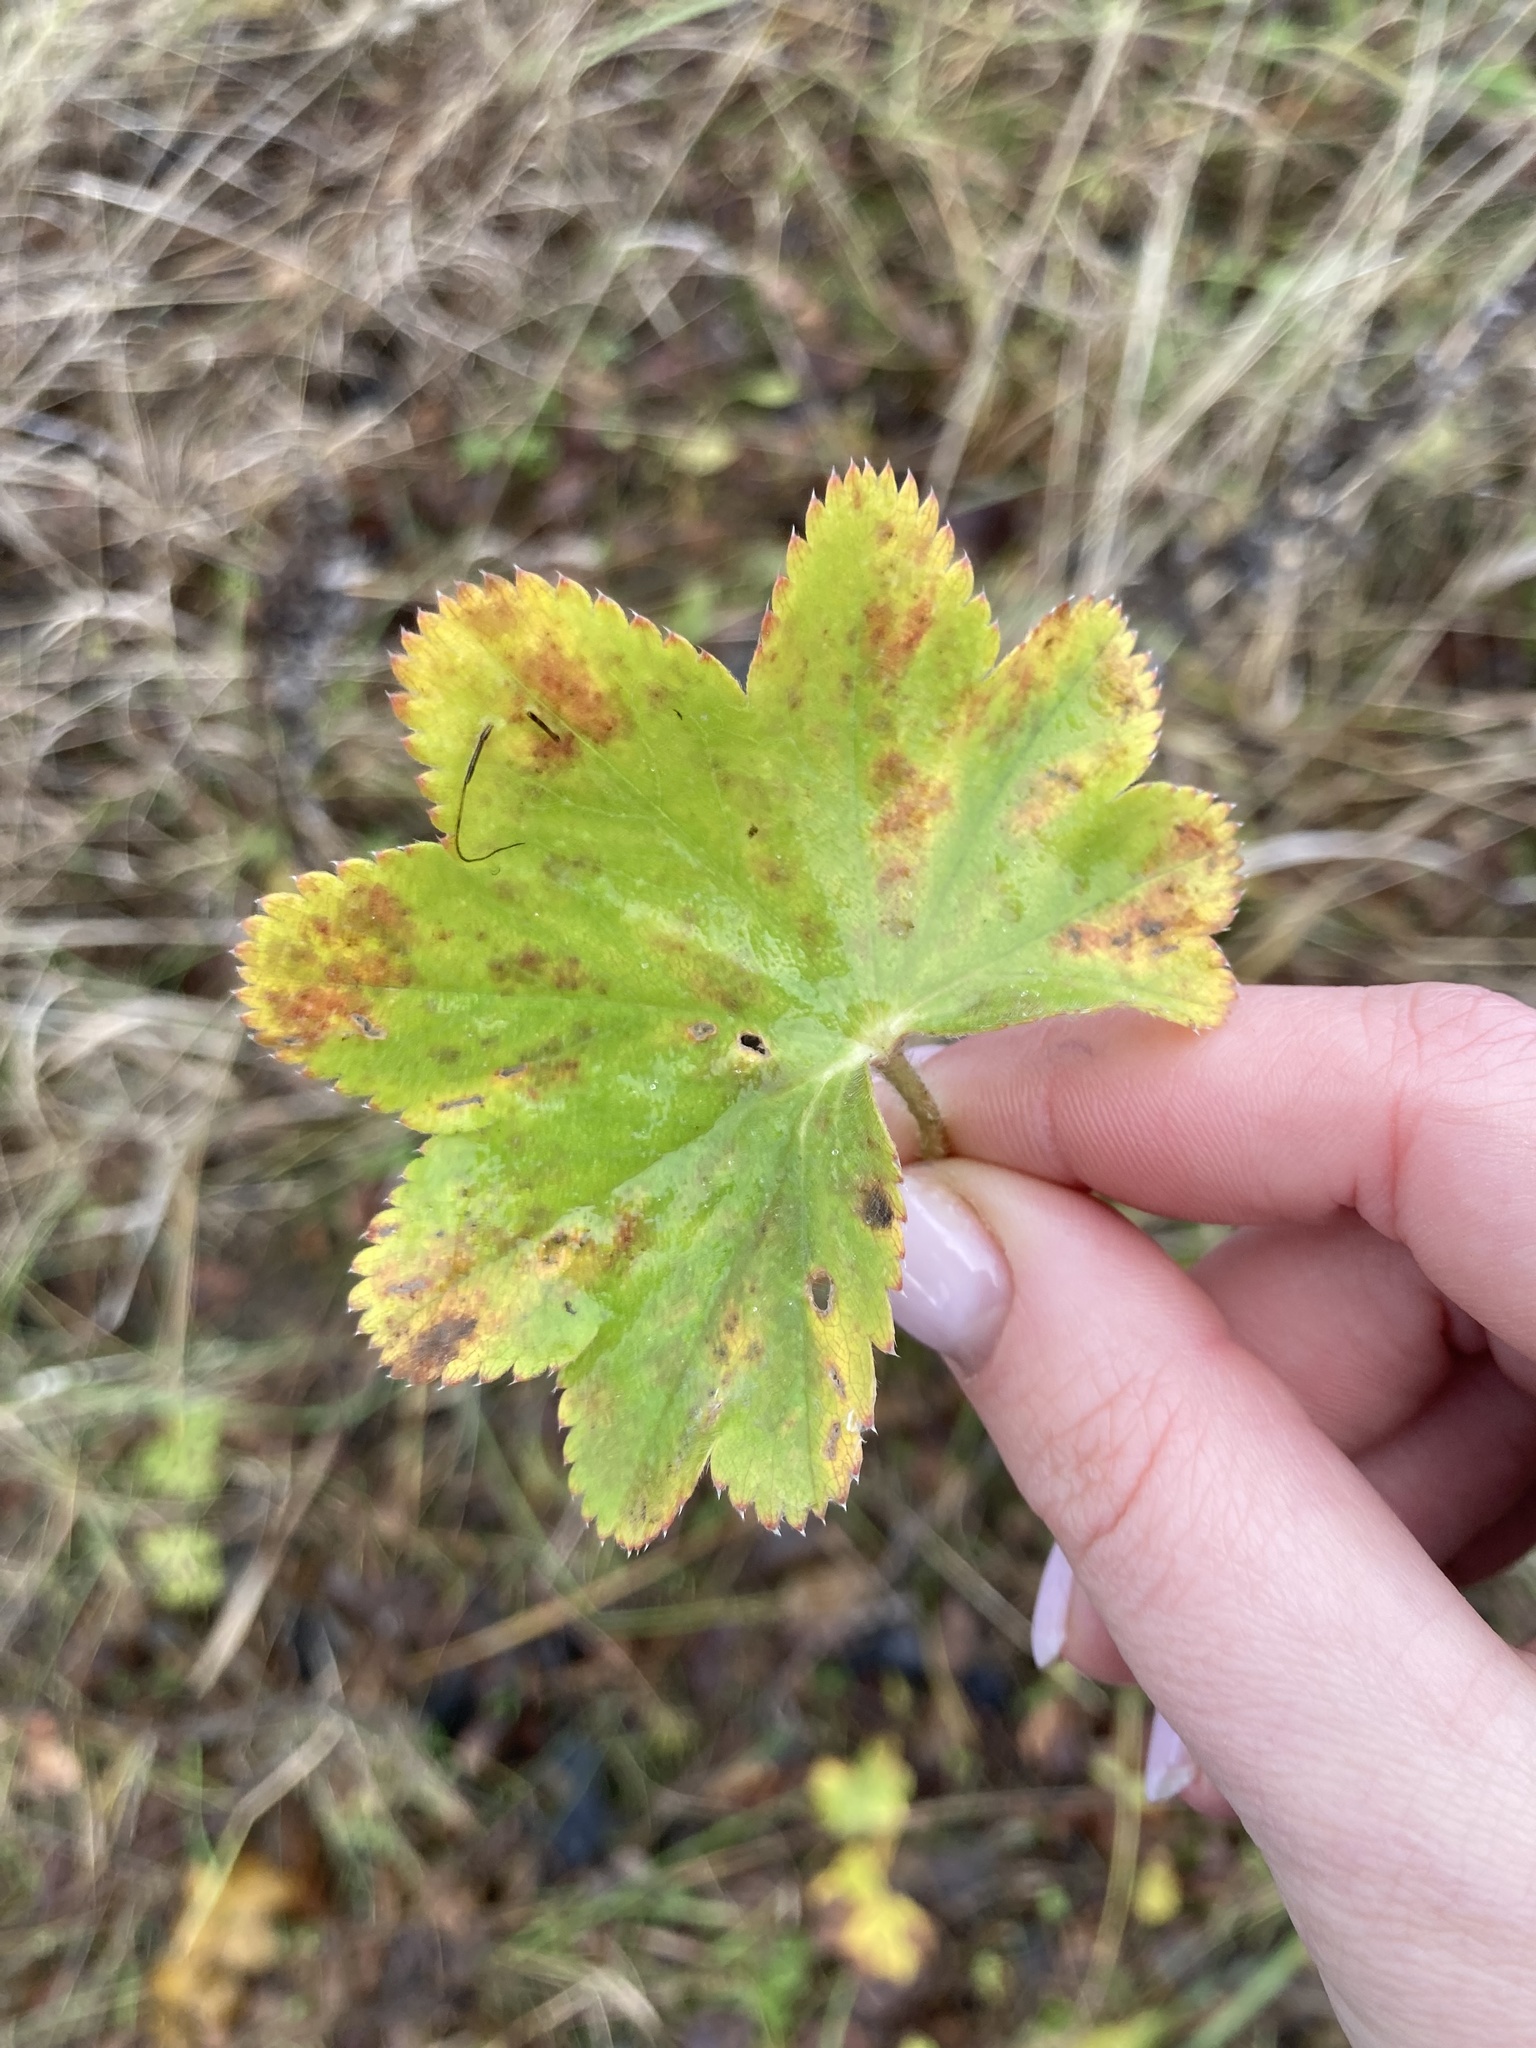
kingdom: Plantae
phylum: Tracheophyta
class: Magnoliopsida
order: Rosales
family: Rosaceae
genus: Alchemilla
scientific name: Alchemilla
